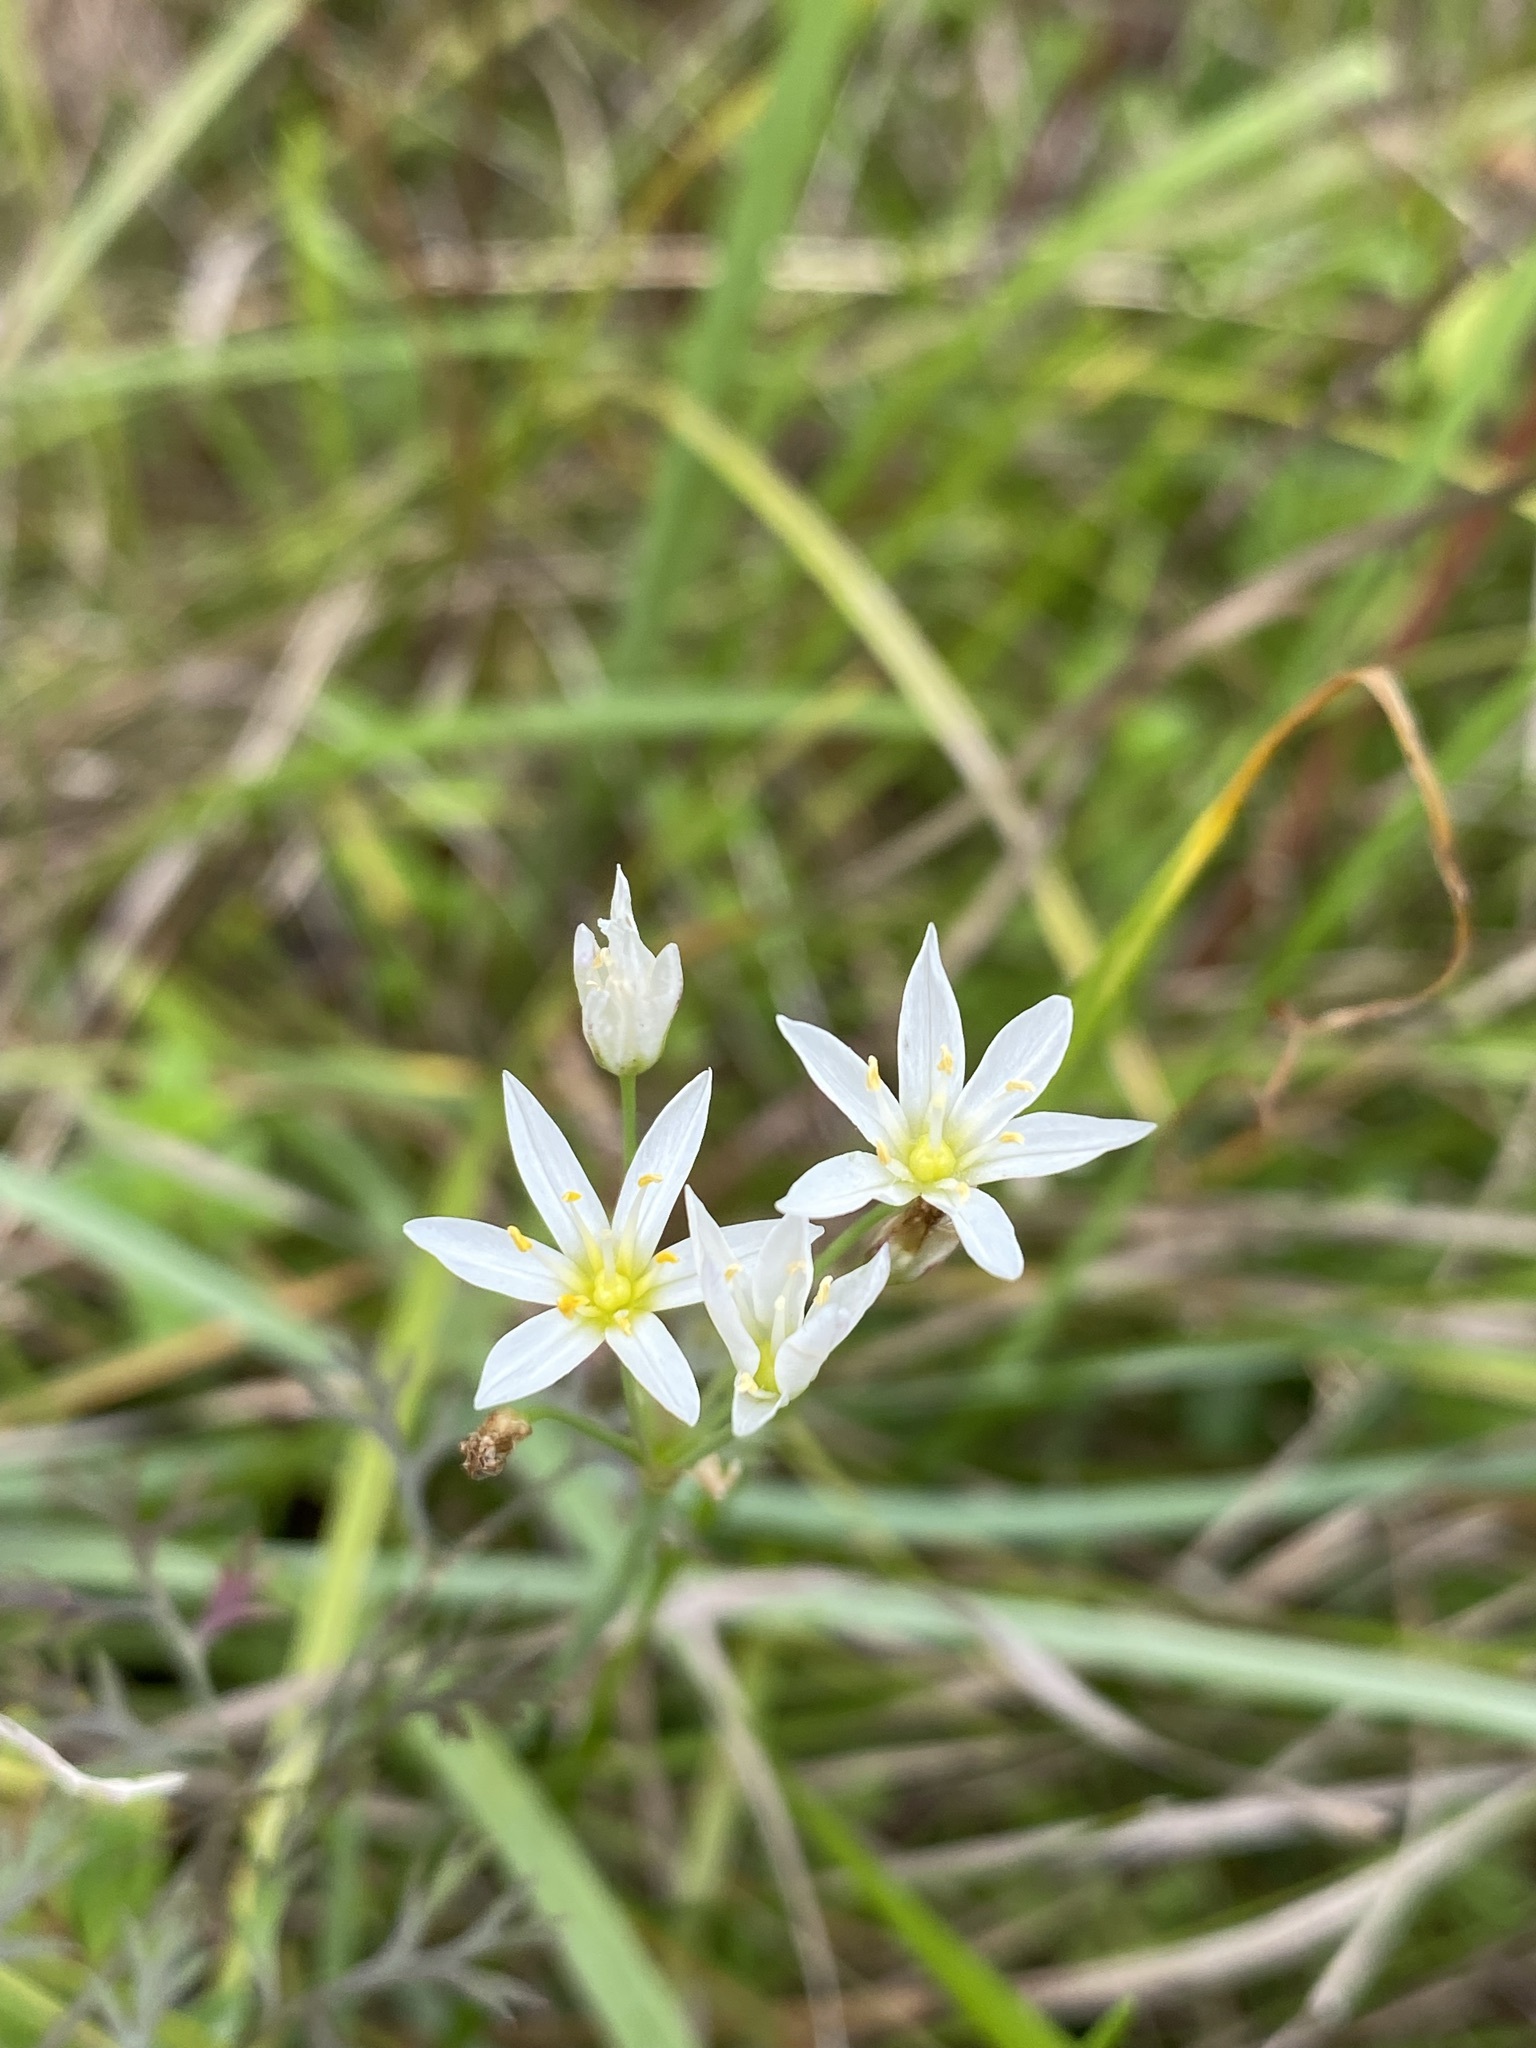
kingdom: Plantae
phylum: Tracheophyta
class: Liliopsida
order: Asparagales
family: Amaryllidaceae
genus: Nothoscordum
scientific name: Nothoscordum bivalve
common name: Crow-poison
